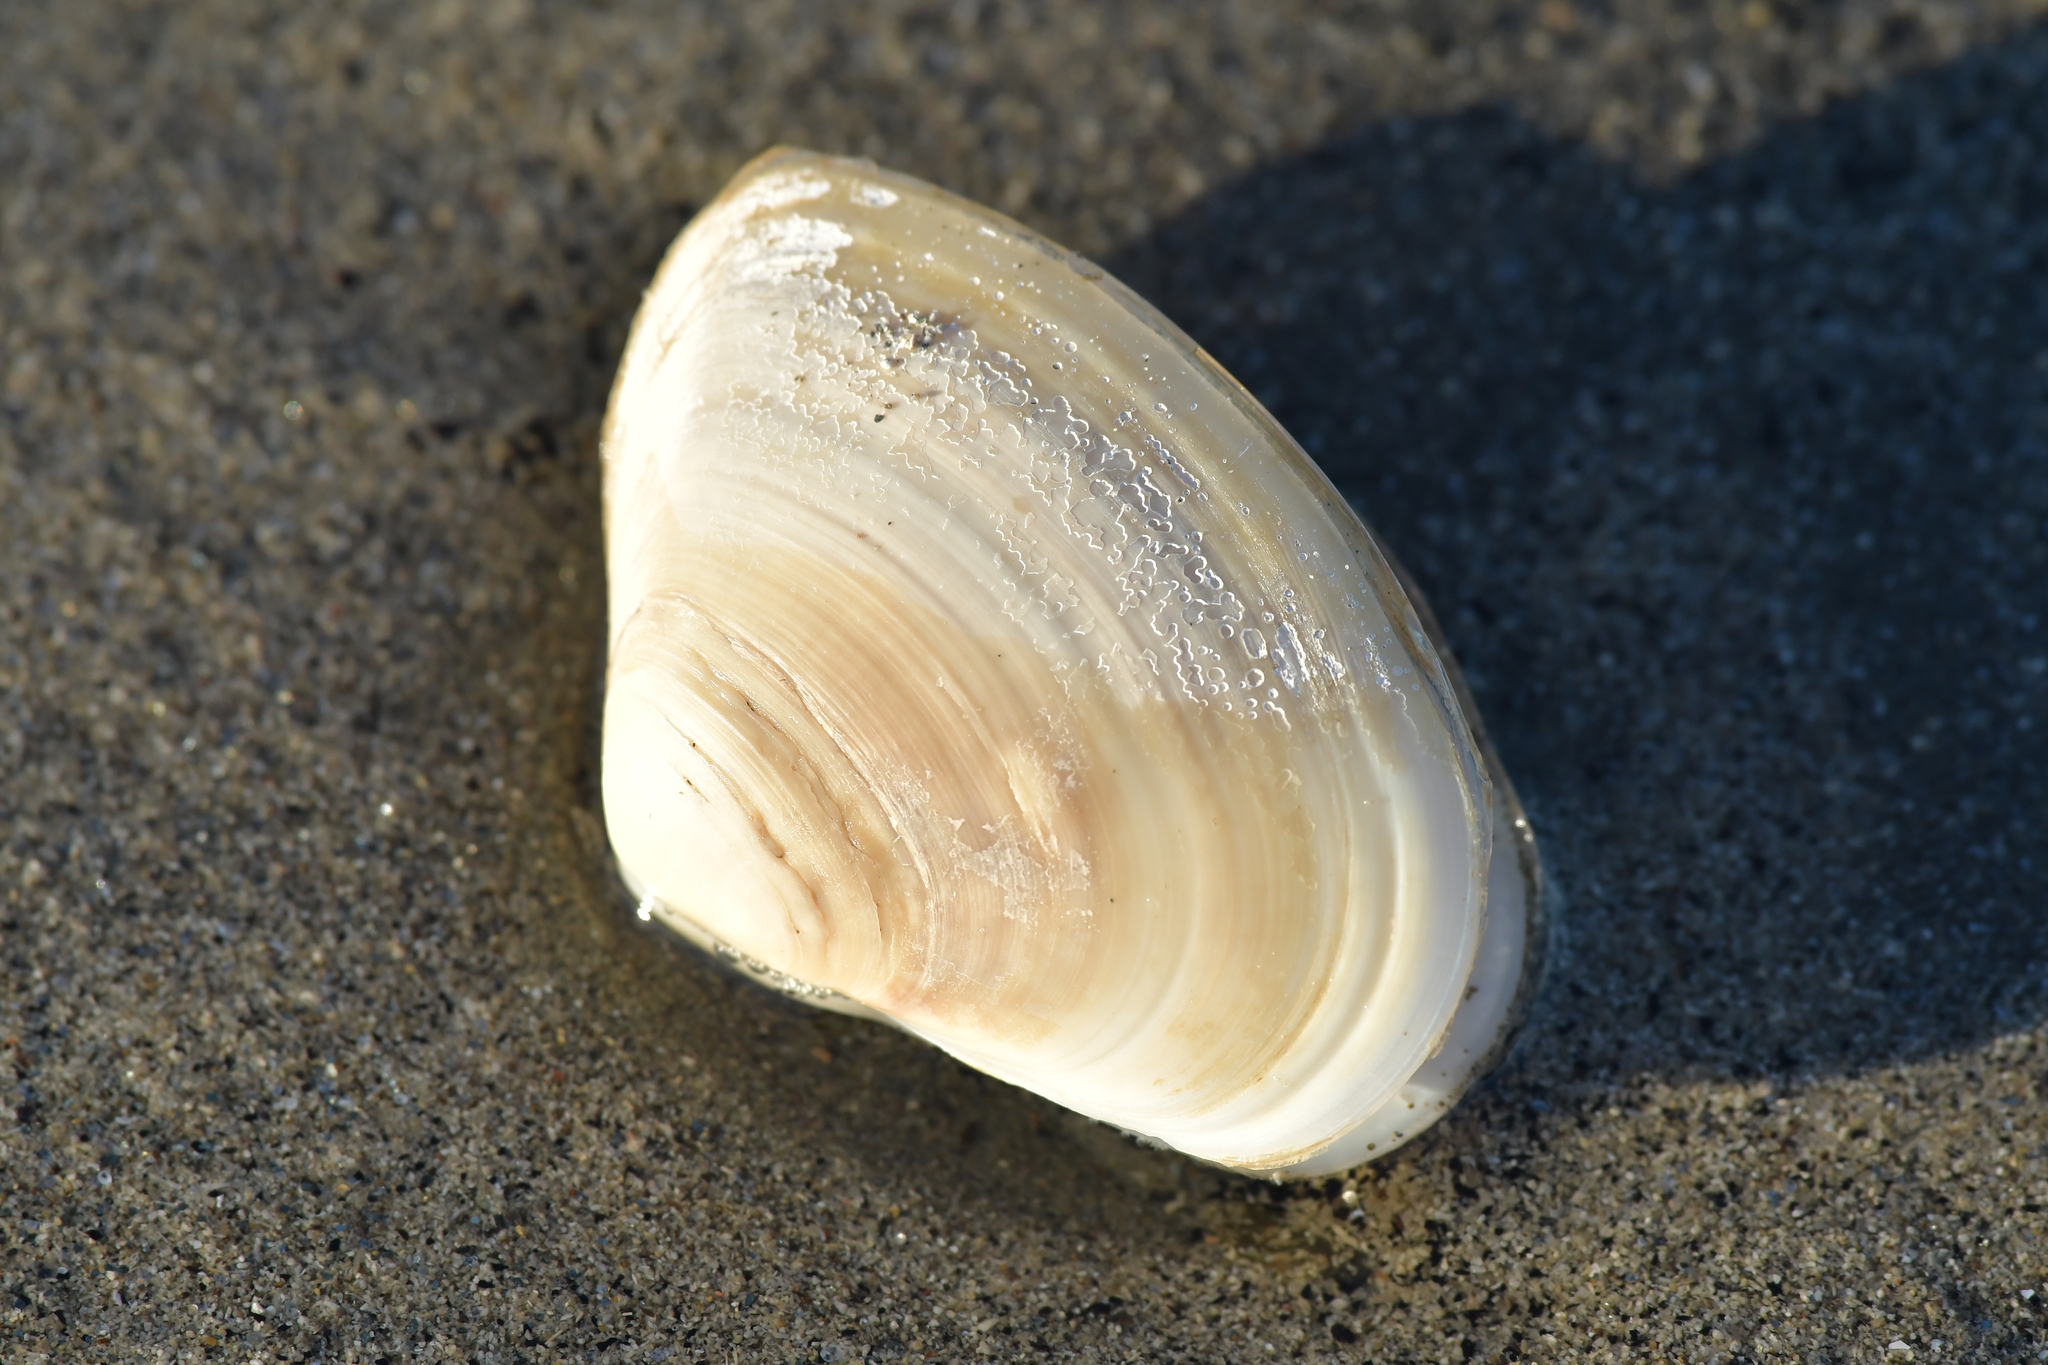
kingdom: Animalia
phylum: Mollusca
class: Bivalvia
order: Venerida
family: Mesodesmatidae
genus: Paphies
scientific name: Paphies donacina
